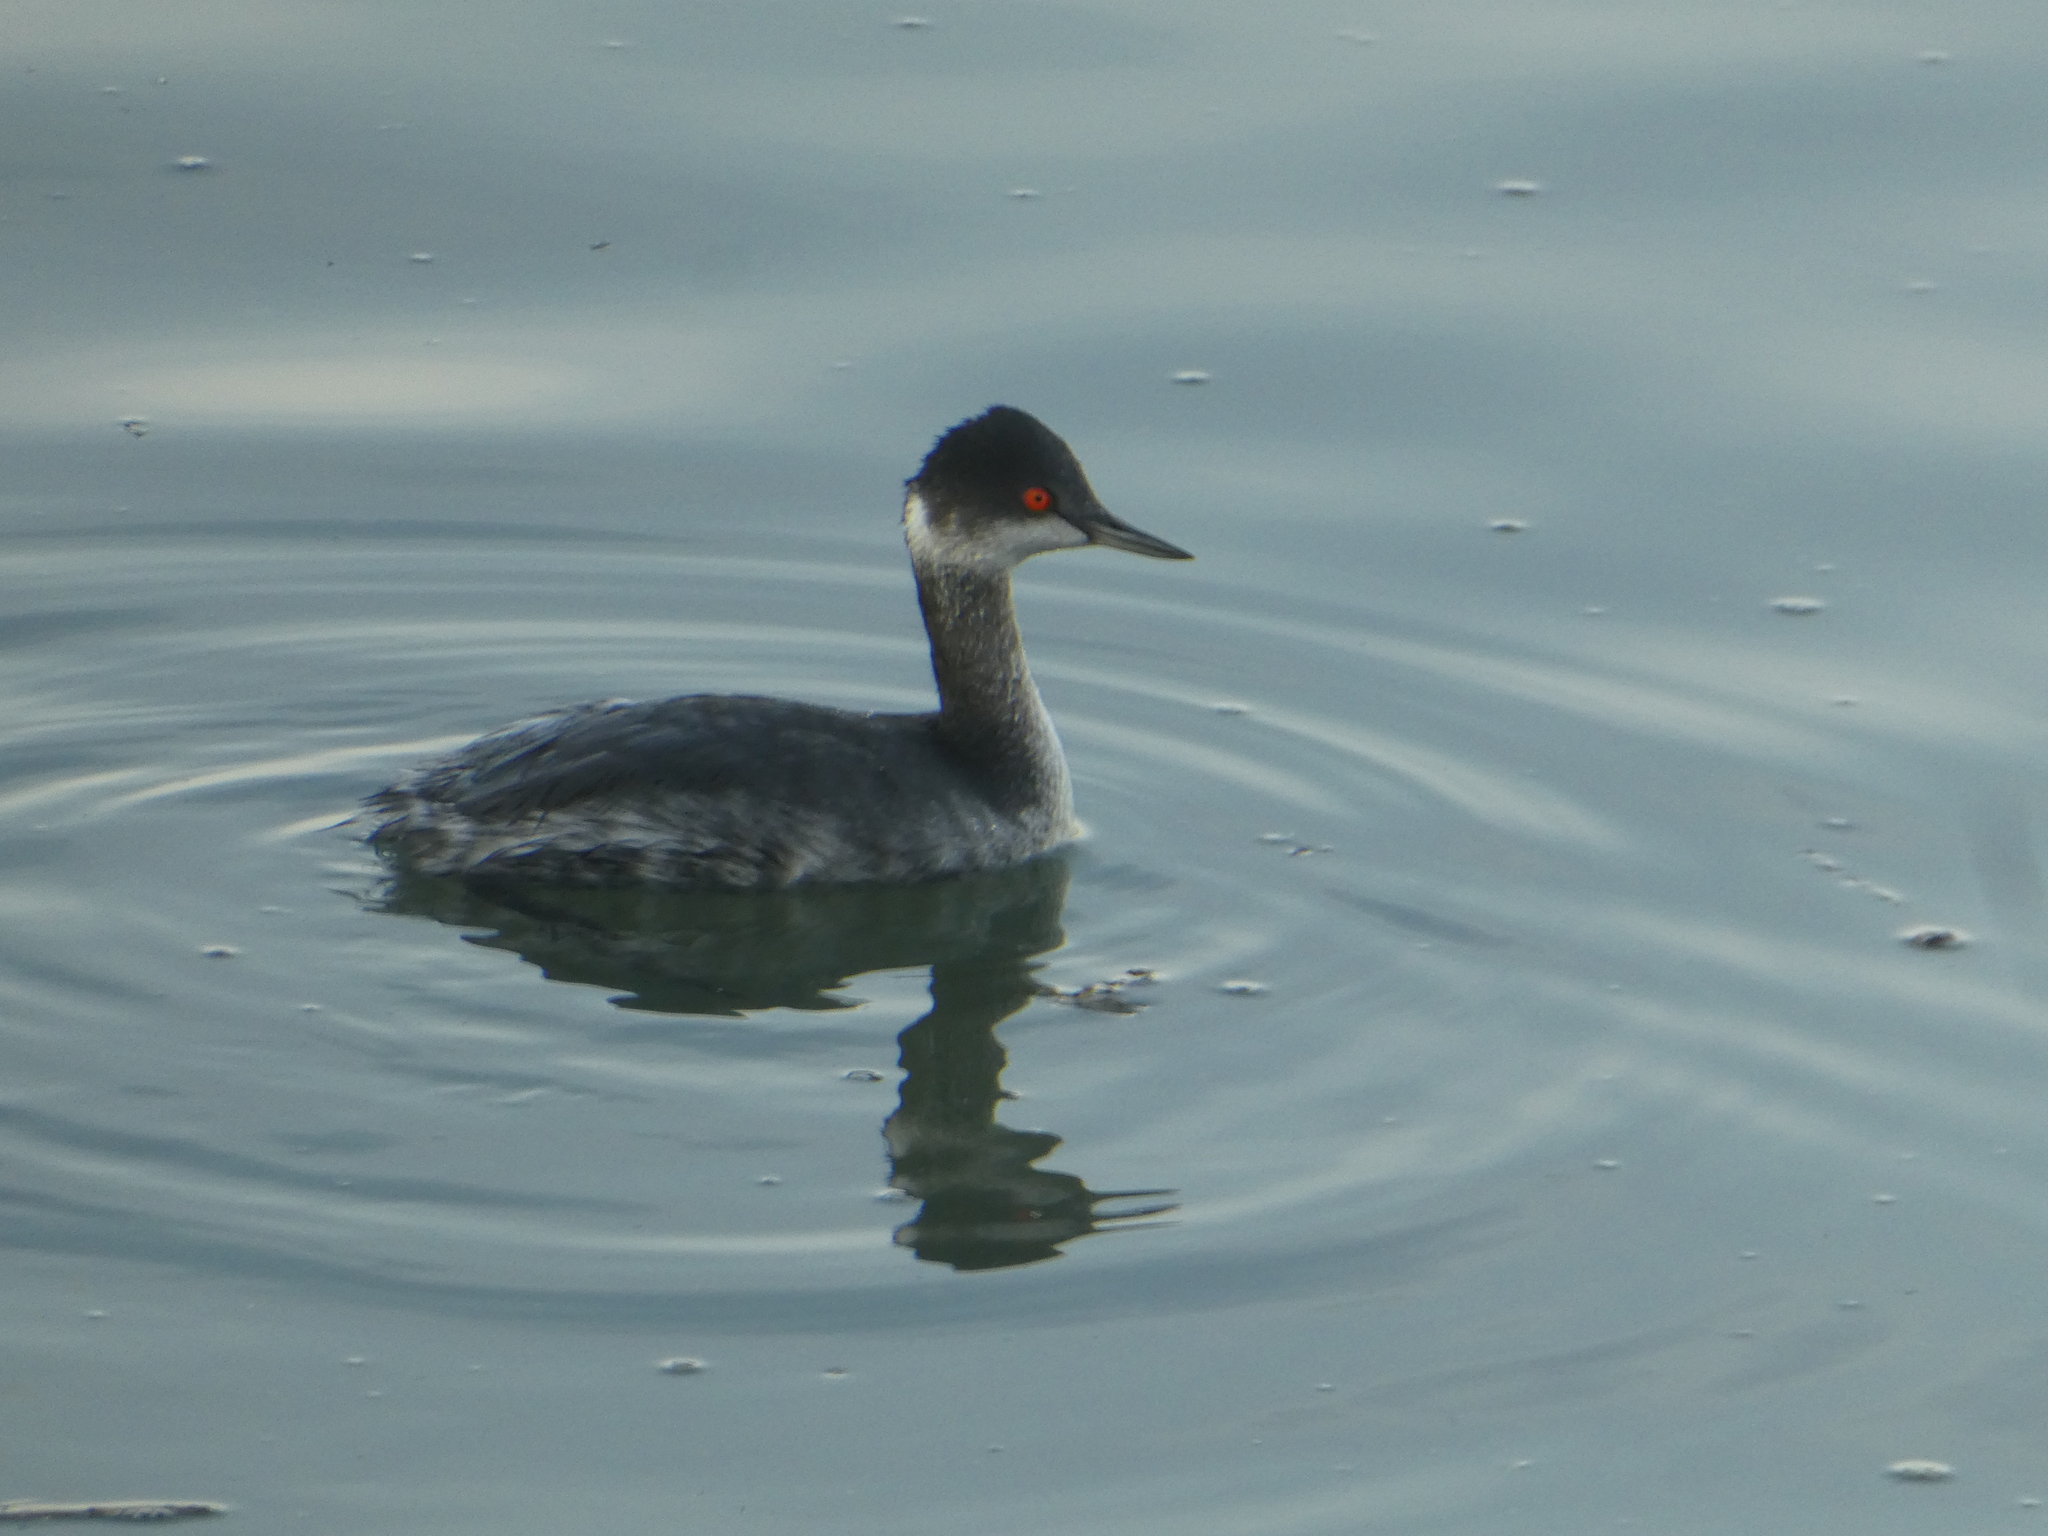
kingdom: Animalia
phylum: Chordata
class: Aves
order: Podicipediformes
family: Podicipedidae
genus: Podiceps
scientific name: Podiceps nigricollis
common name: Black-necked grebe
